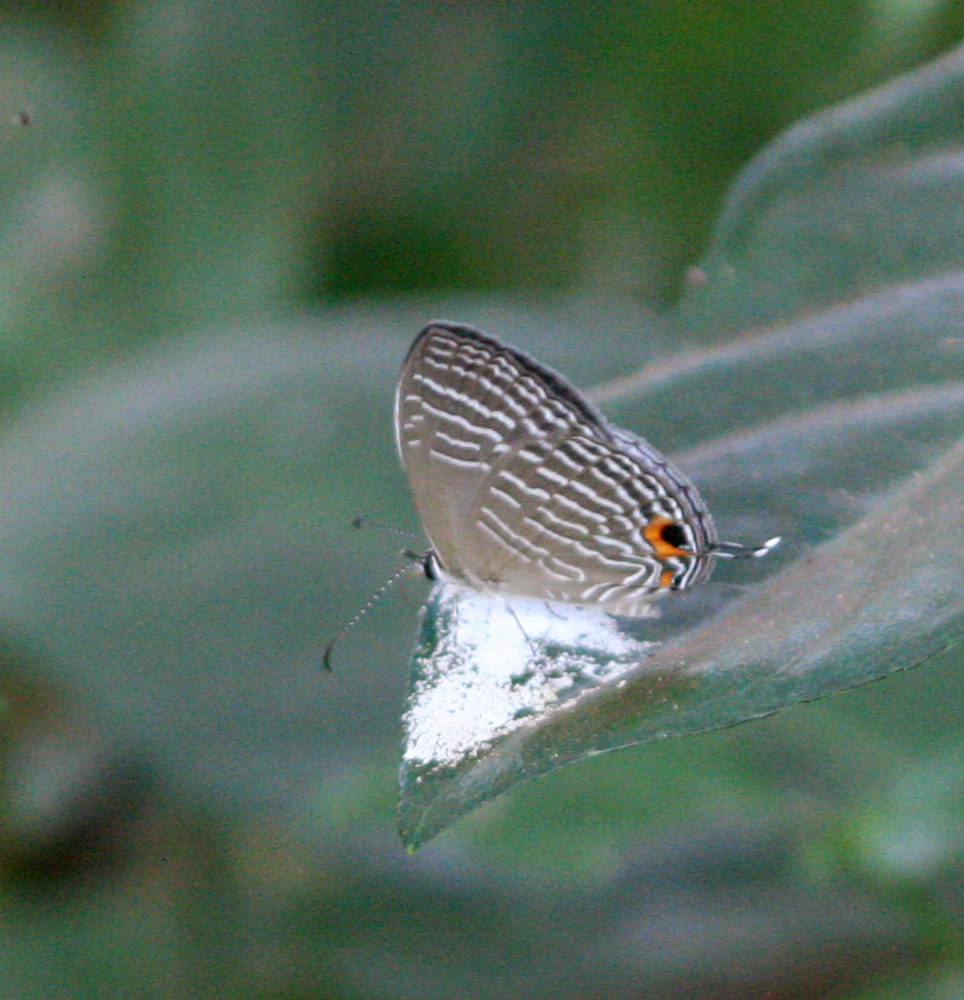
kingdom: Animalia
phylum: Arthropoda
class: Insecta
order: Lepidoptera
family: Lycaenidae
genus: Jamides
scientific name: Jamides celeno
